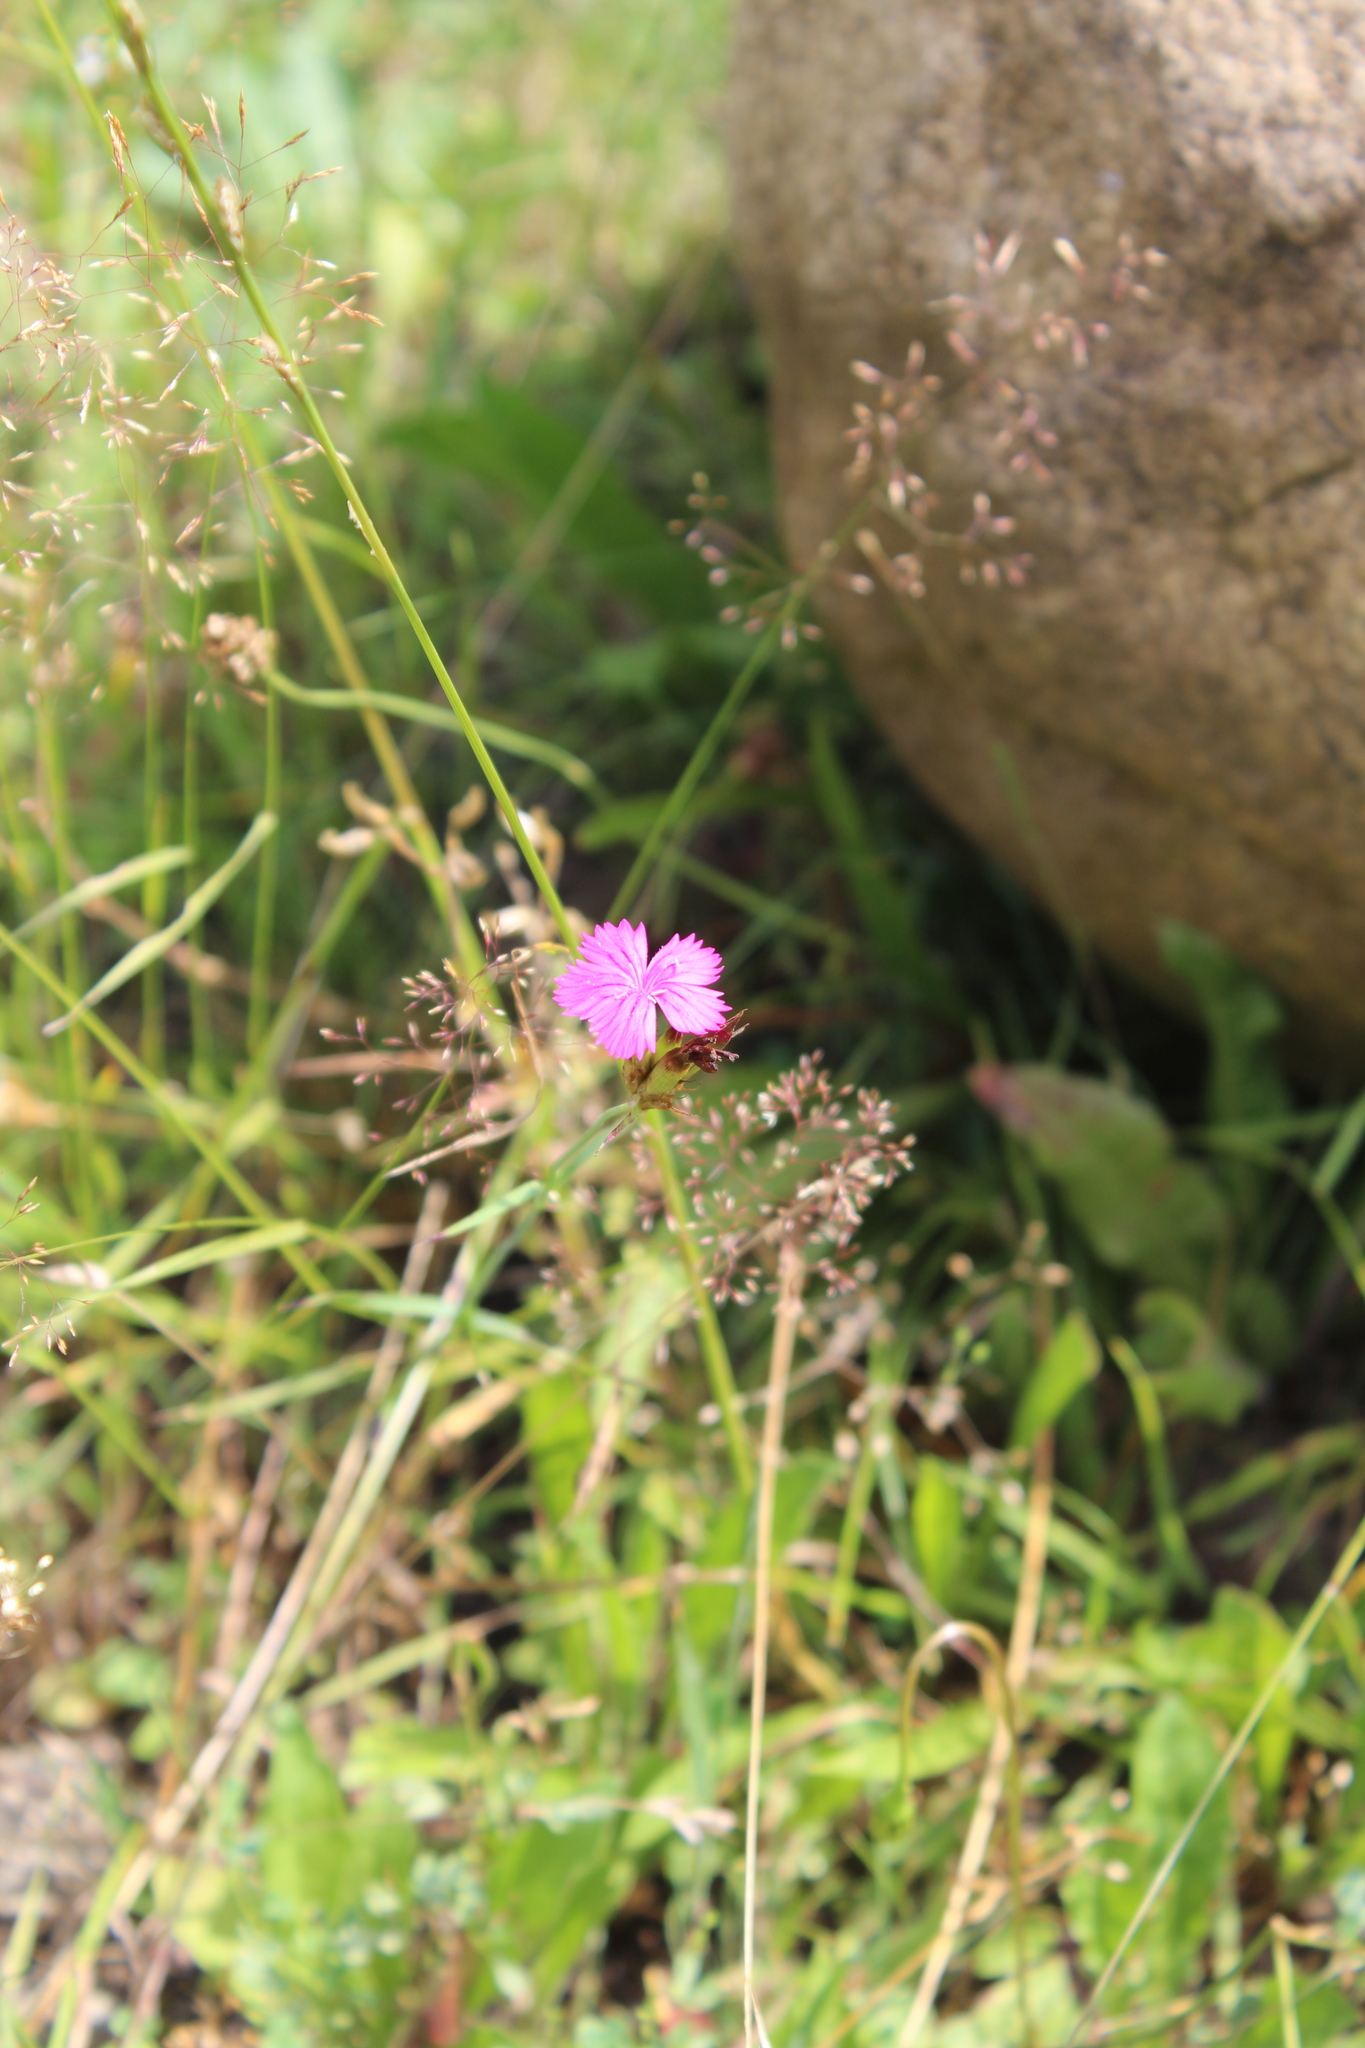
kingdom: Plantae
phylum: Tracheophyta
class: Magnoliopsida
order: Caryophyllales
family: Caryophyllaceae
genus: Dianthus
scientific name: Dianthus ruprechtii
